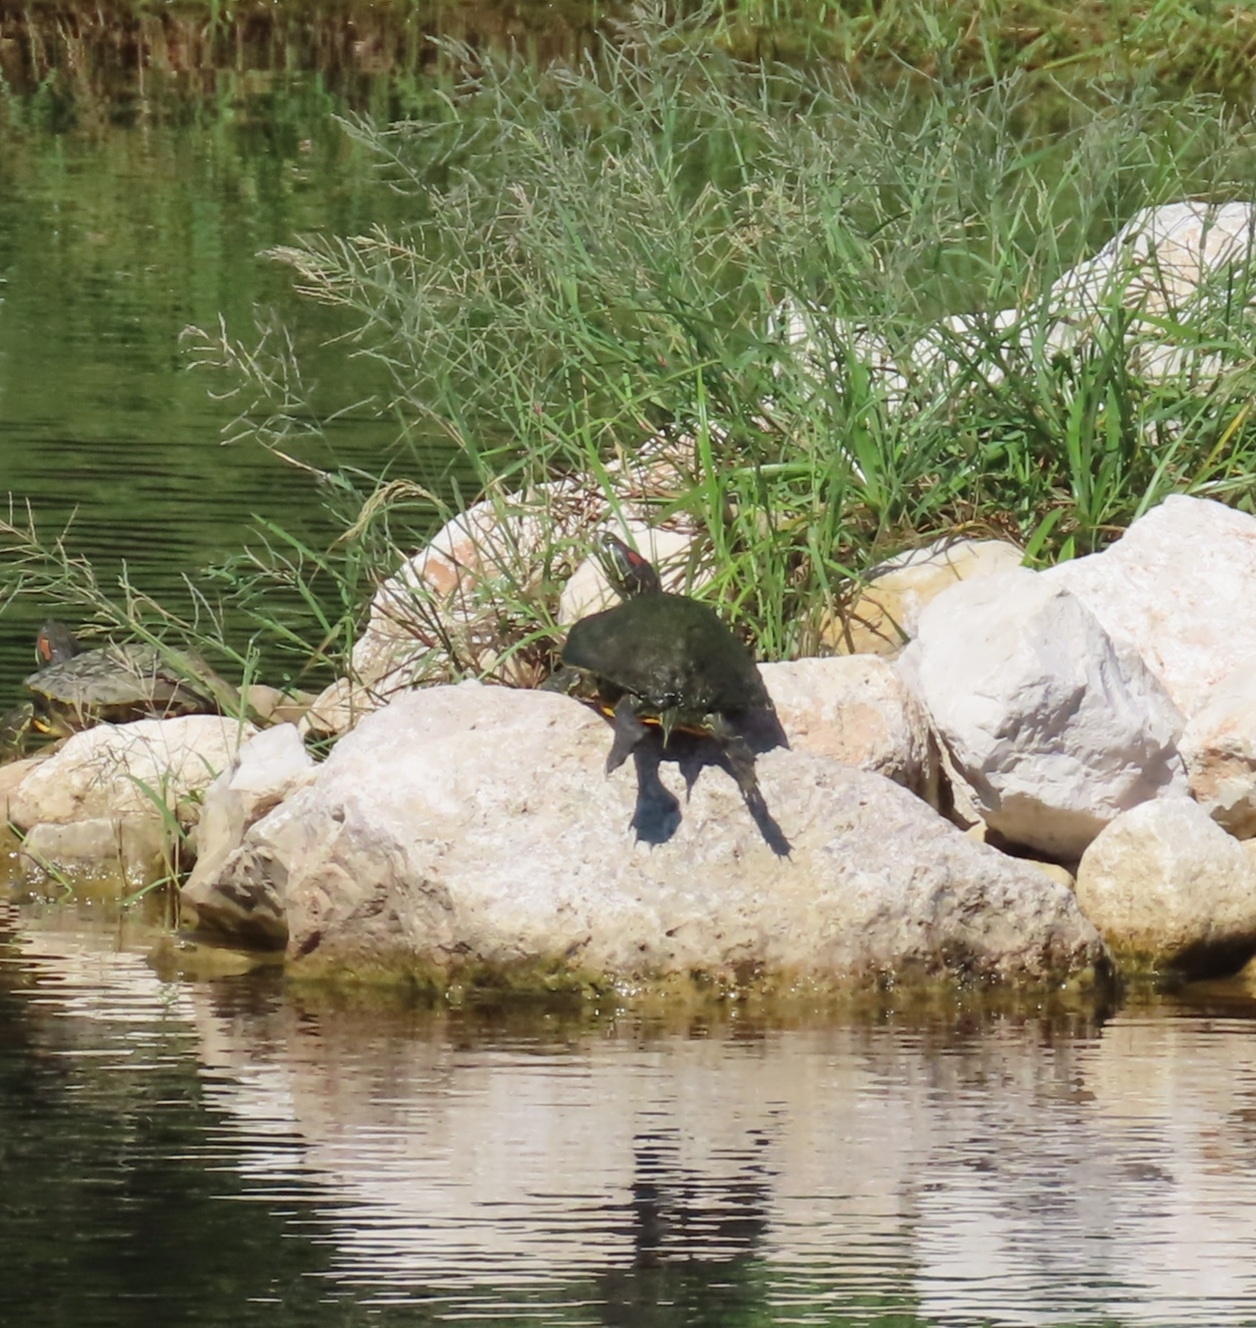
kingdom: Animalia
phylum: Chordata
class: Testudines
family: Emydidae
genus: Trachemys
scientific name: Trachemys scripta
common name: Slider
